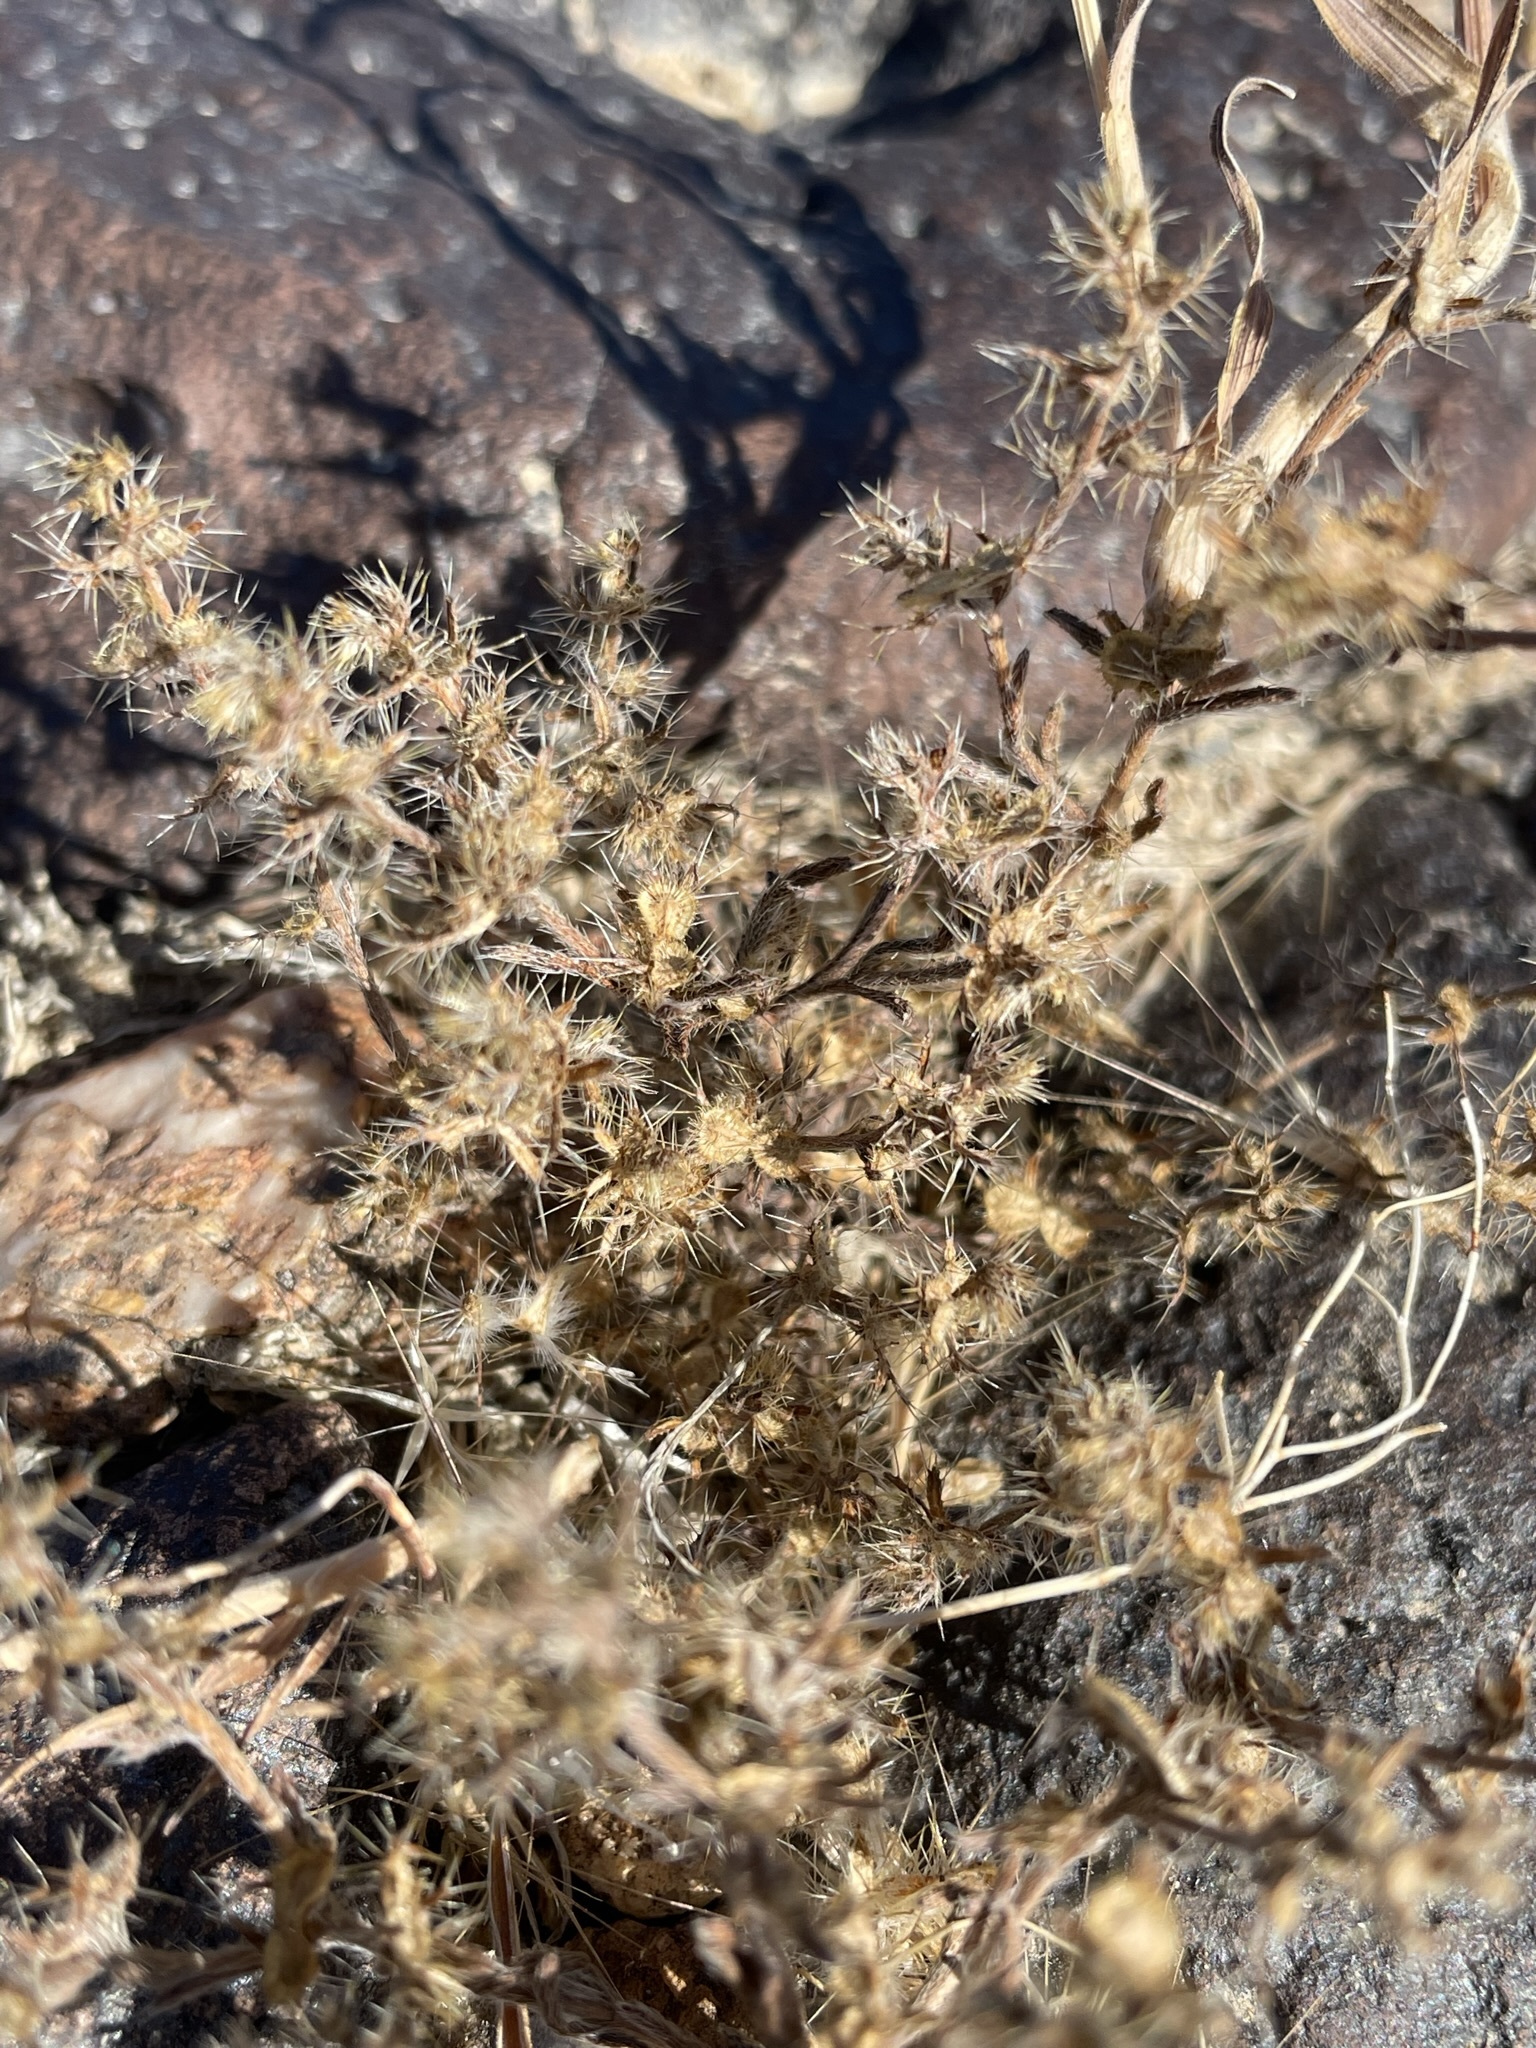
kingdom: Plantae
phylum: Tracheophyta
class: Magnoliopsida
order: Boraginales
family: Boraginaceae
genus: Pectocarya
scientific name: Pectocarya setosa
